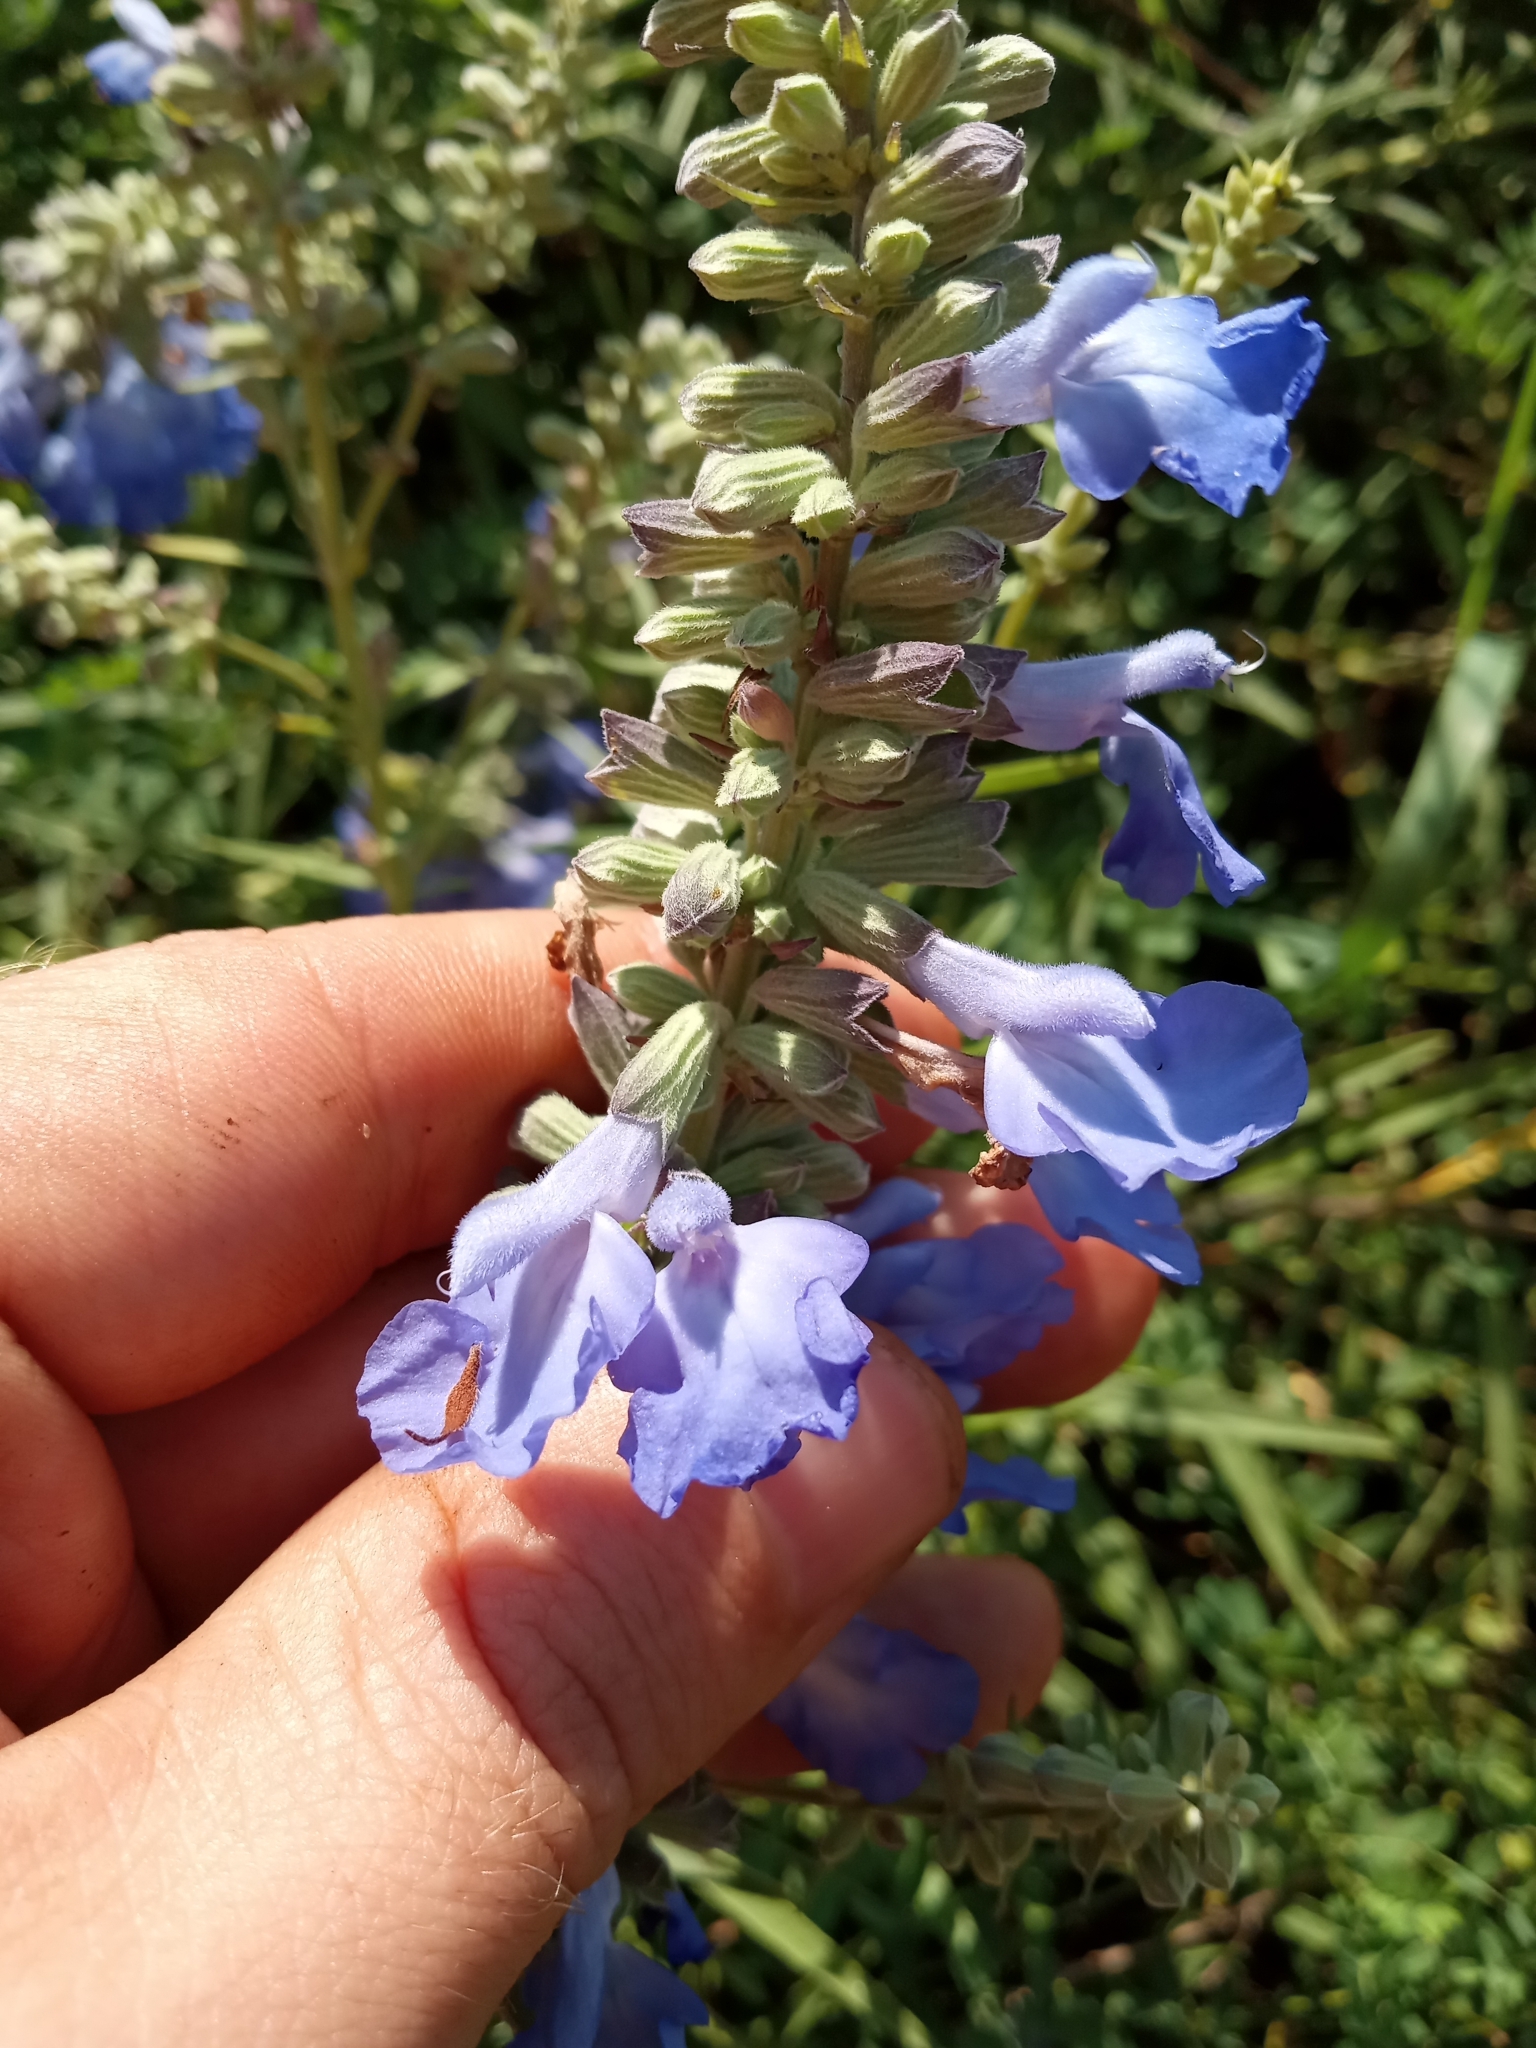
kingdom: Plantae
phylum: Tracheophyta
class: Magnoliopsida
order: Lamiales
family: Lamiaceae
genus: Salvia
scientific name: Salvia azurea
